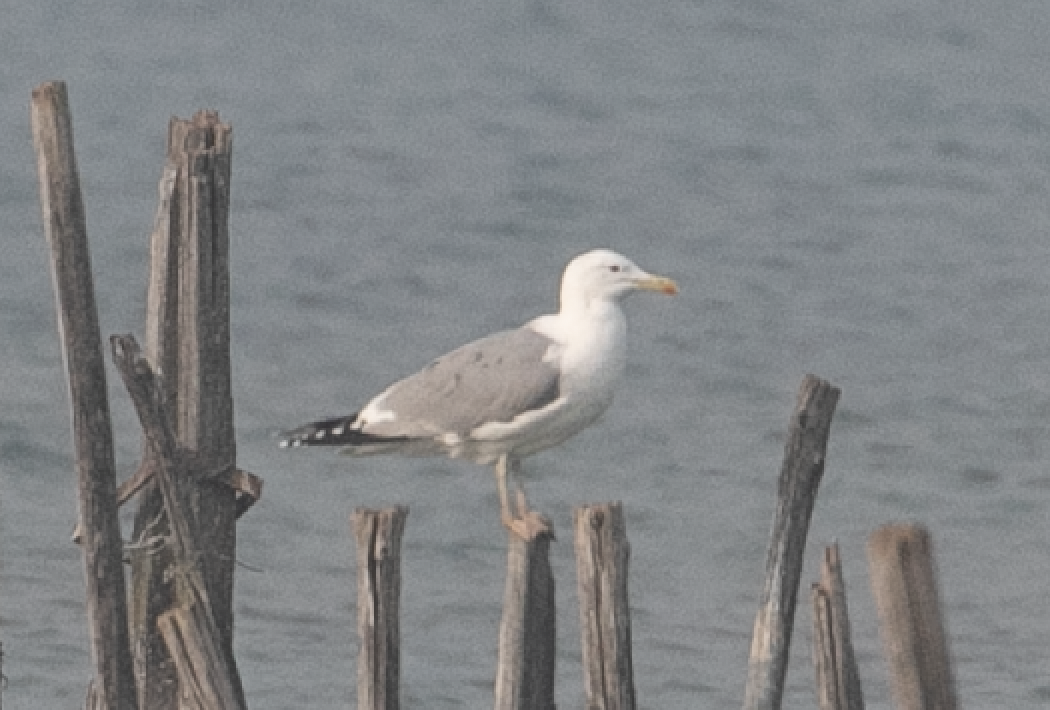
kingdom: Animalia
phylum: Chordata
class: Aves
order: Charadriiformes
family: Laridae
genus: Larus
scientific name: Larus cachinnans
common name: Caspian gull
